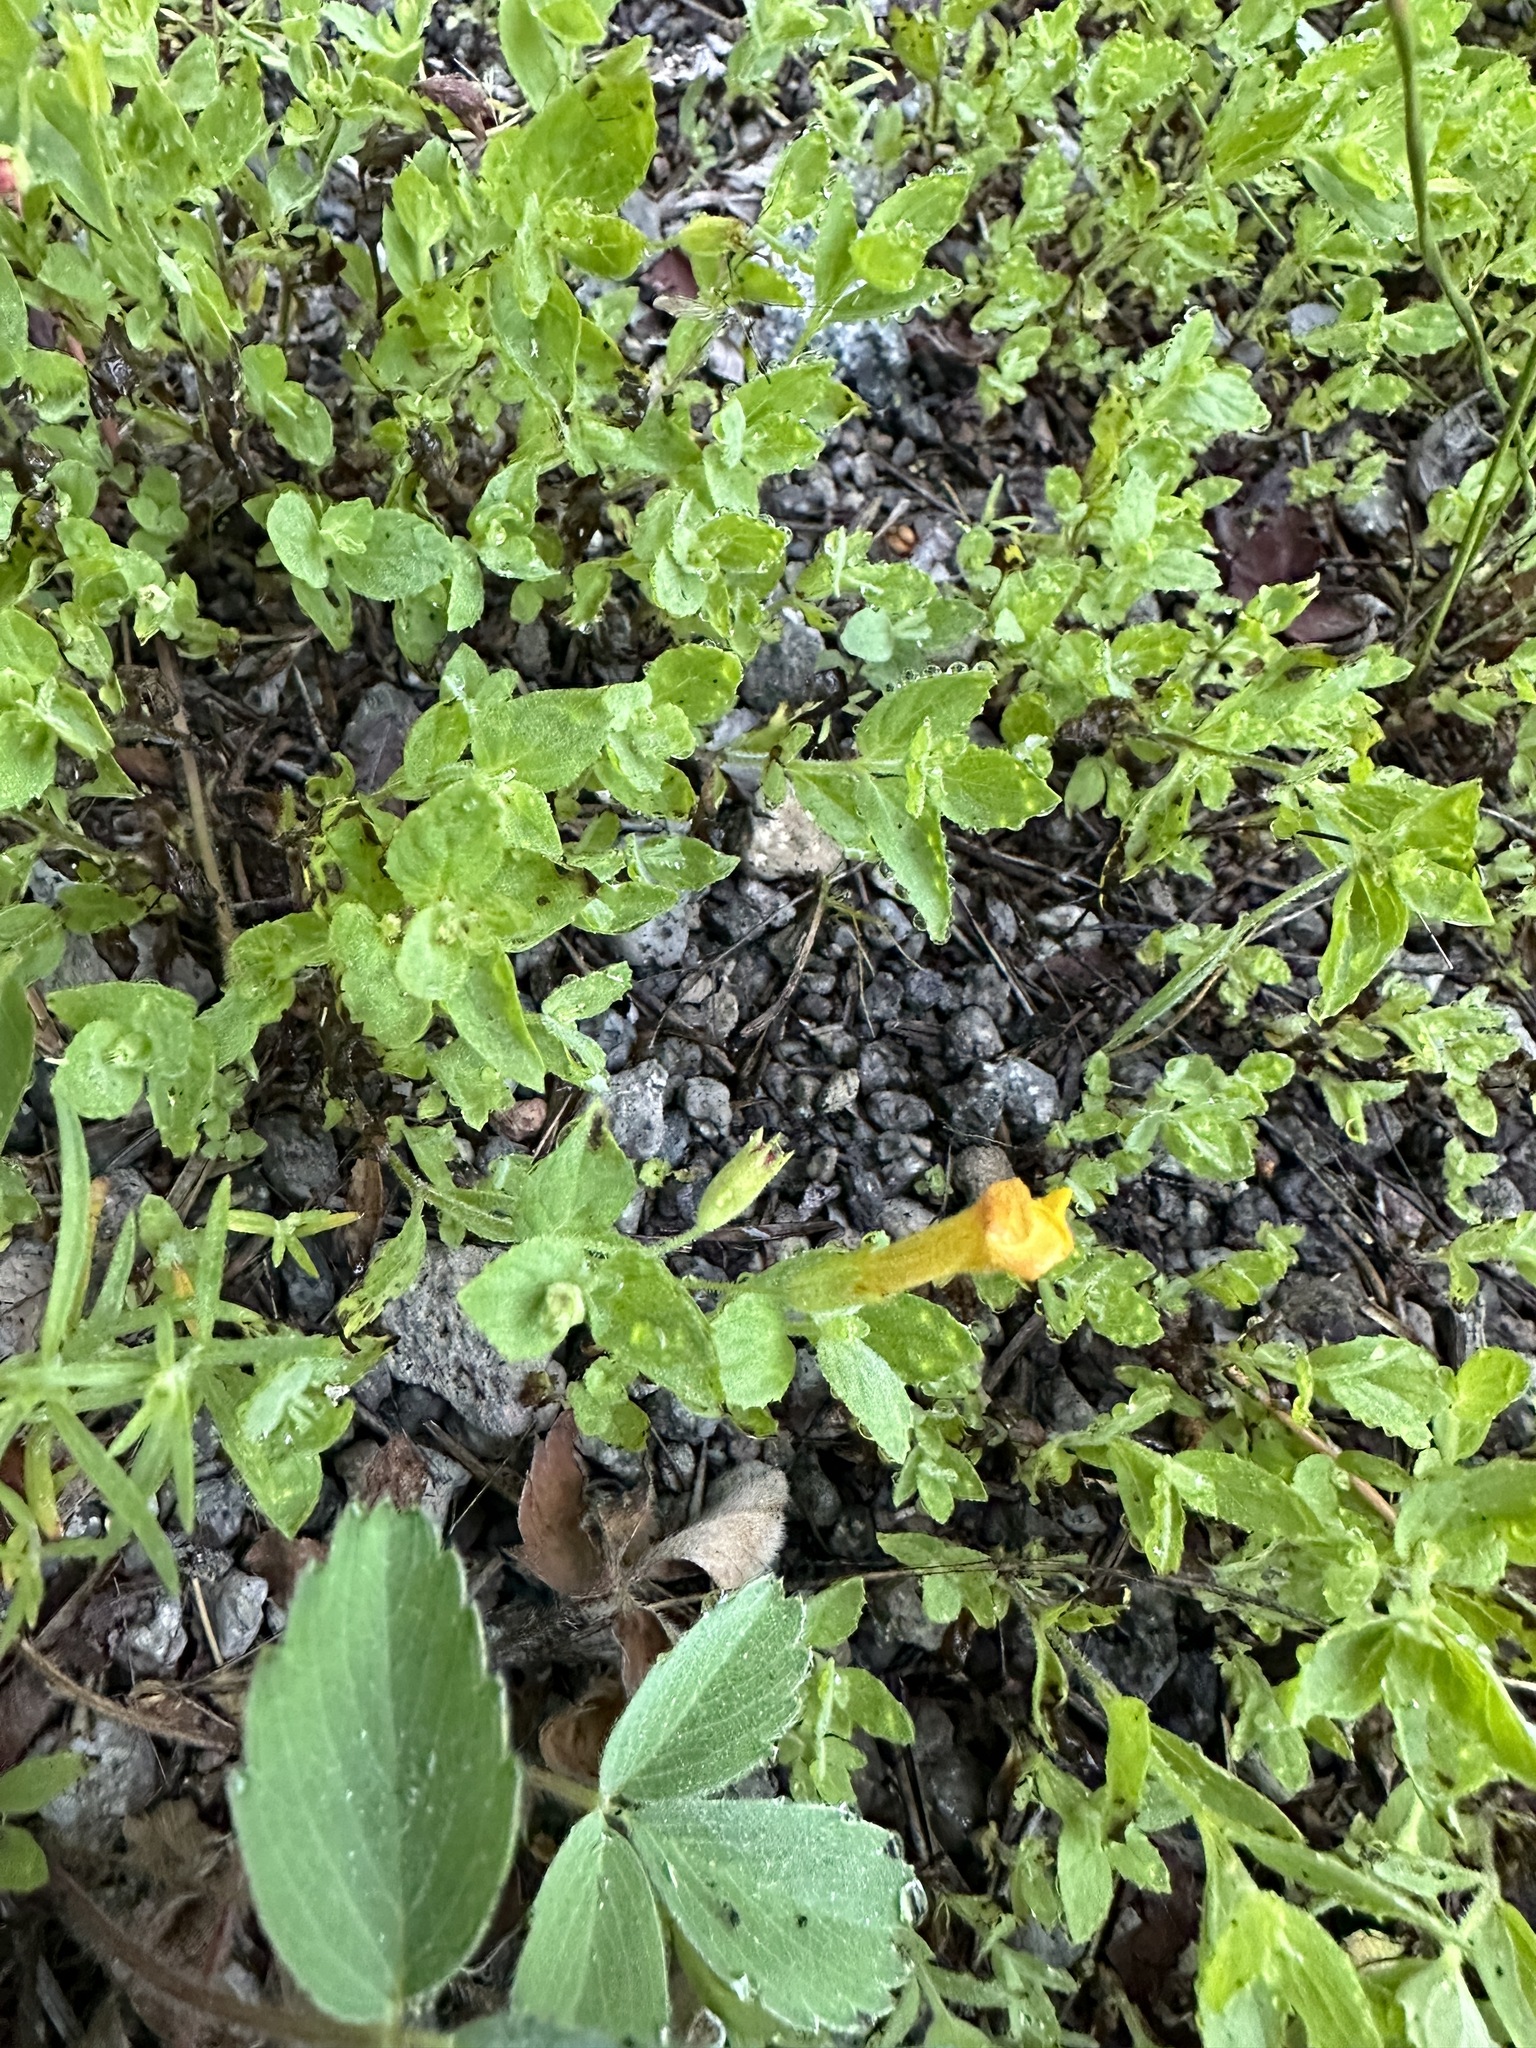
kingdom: Plantae
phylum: Tracheophyta
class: Magnoliopsida
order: Lamiales
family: Phrymaceae
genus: Erythranthe
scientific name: Erythranthe moschata
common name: Muskflower
